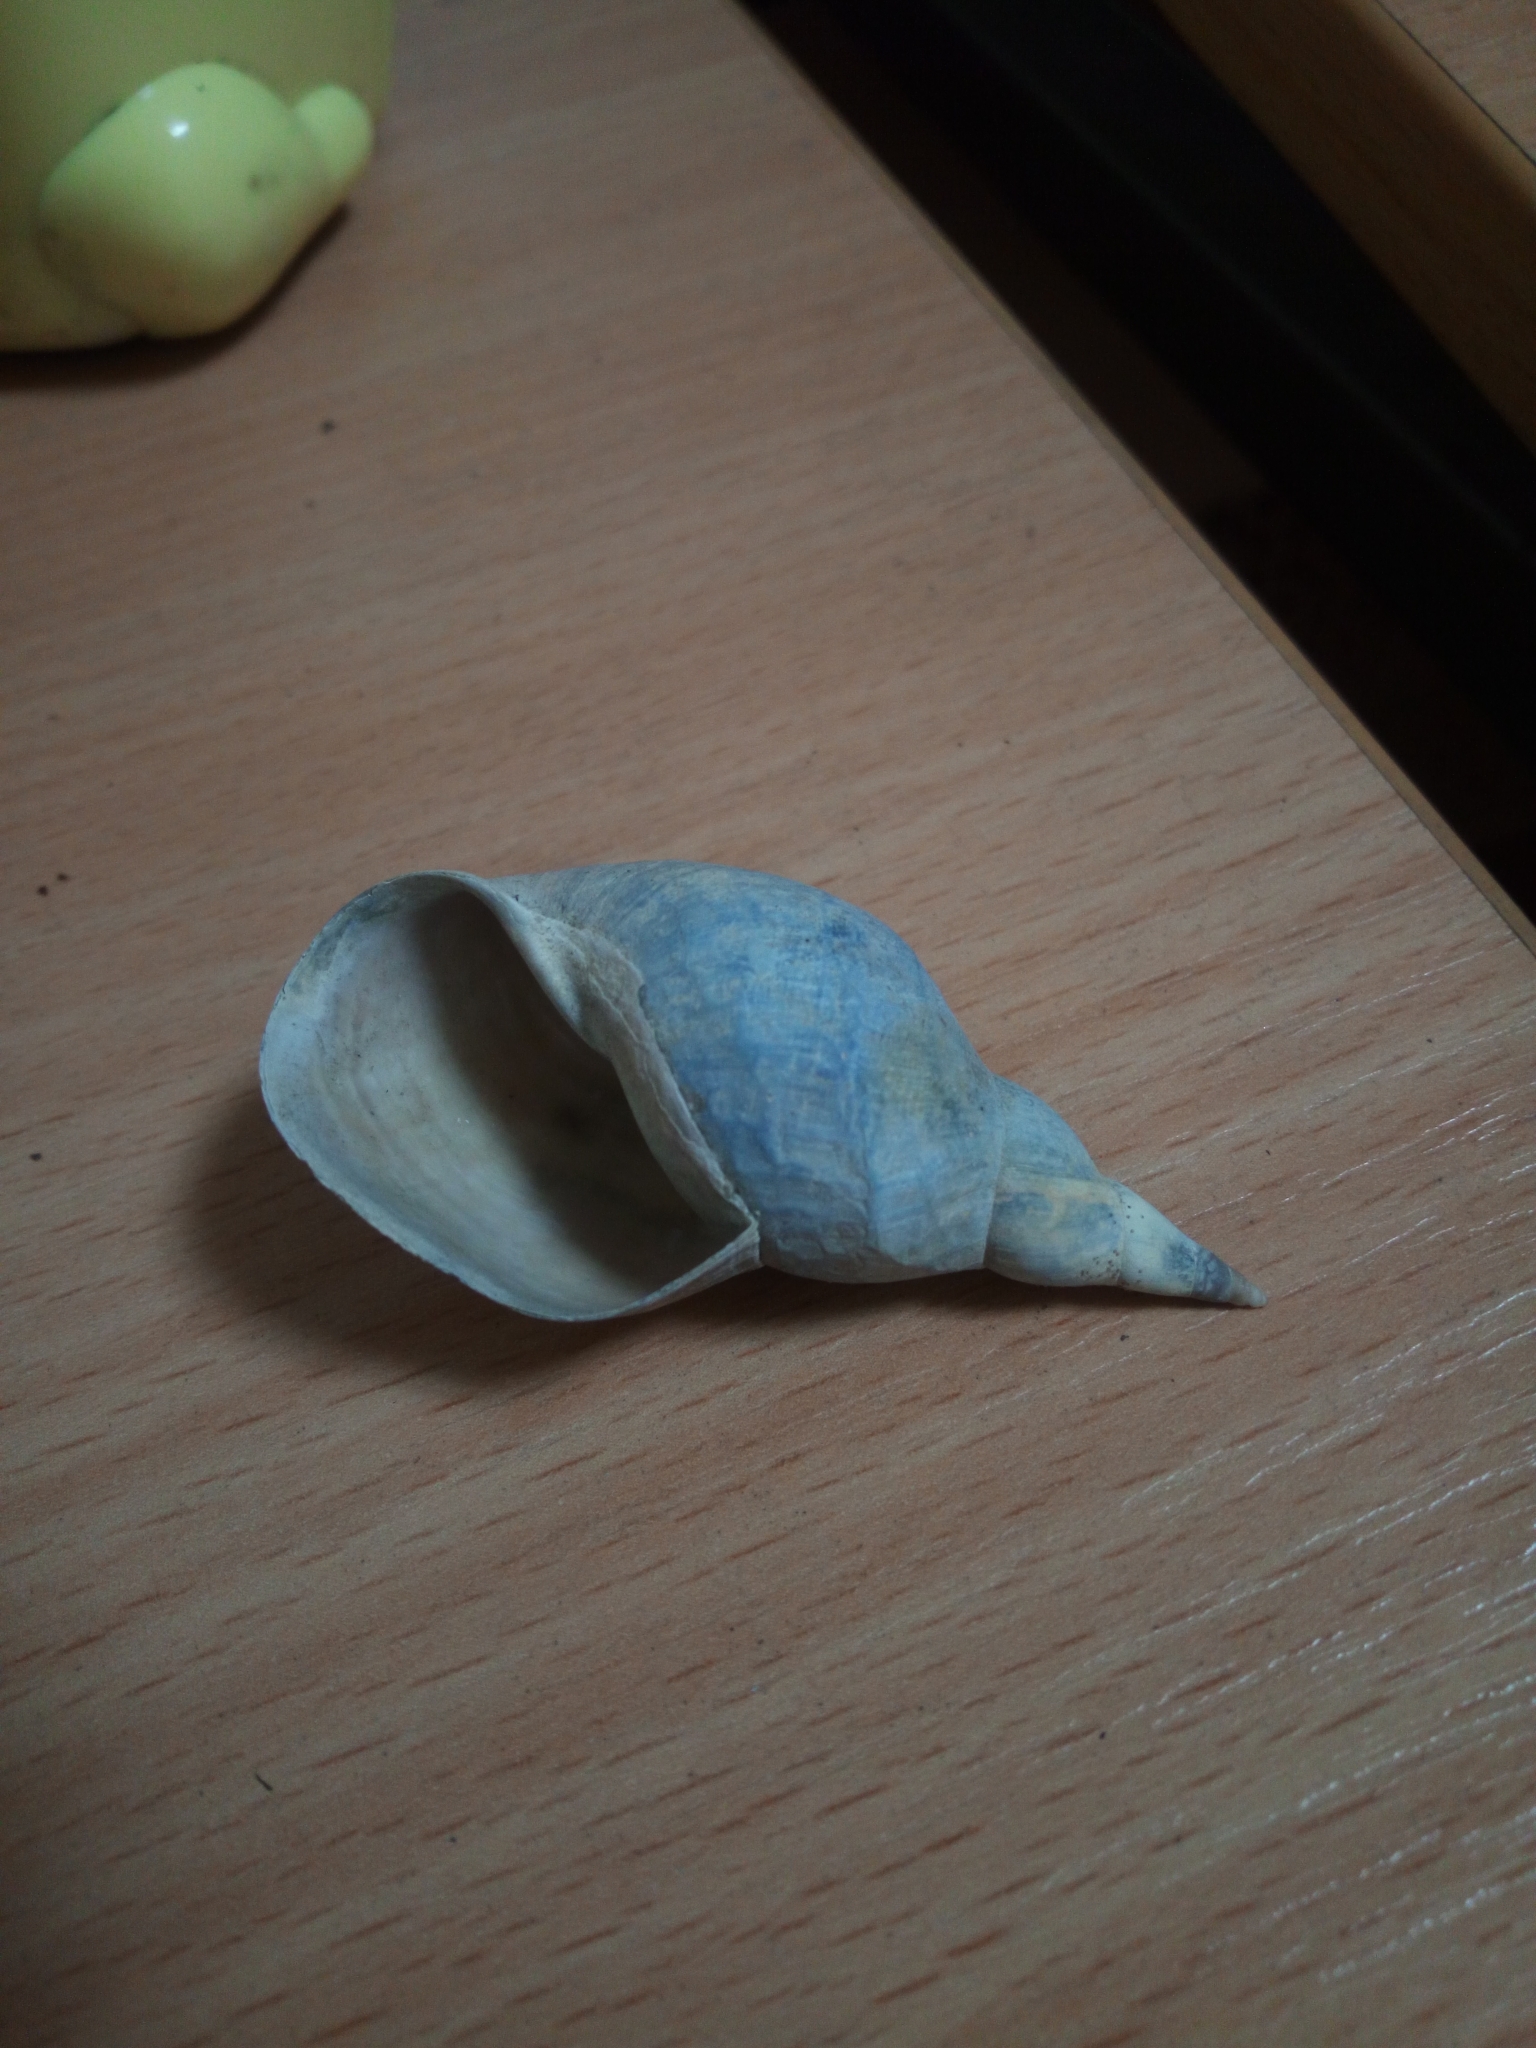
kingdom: Animalia
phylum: Mollusca
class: Gastropoda
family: Lymnaeidae
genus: Lymnaea
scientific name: Lymnaea stagnalis
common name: Great pond snail
